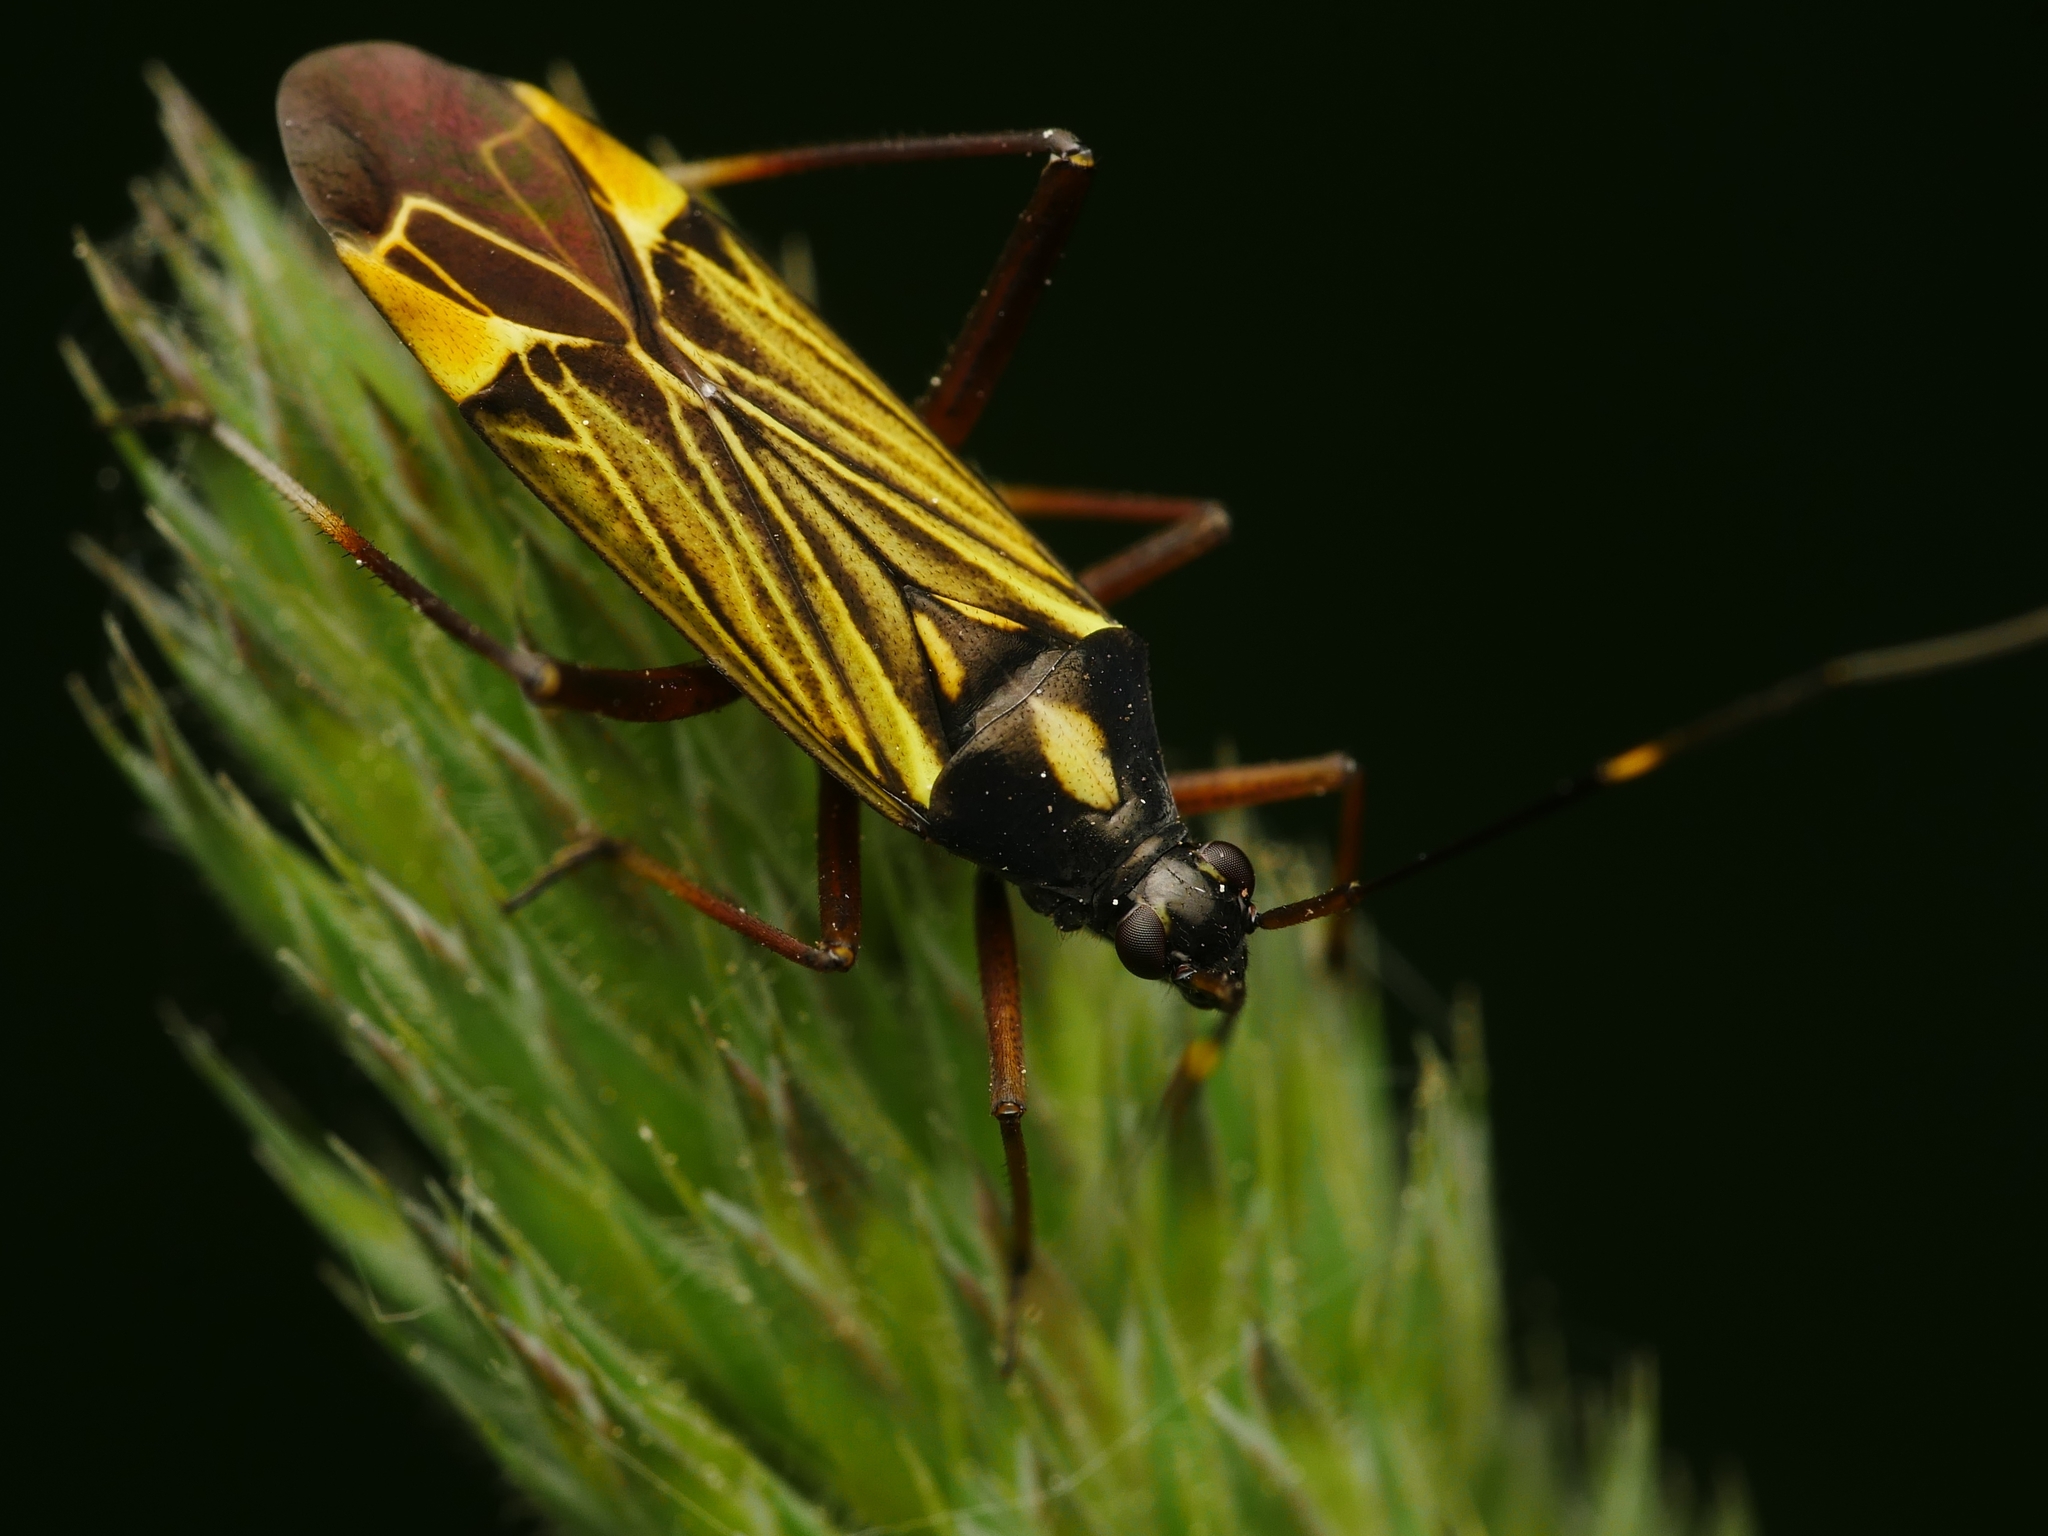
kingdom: Animalia
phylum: Arthropoda
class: Insecta
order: Hemiptera
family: Miridae
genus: Miris
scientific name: Miris striatus
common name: Fine streaked bugkin
